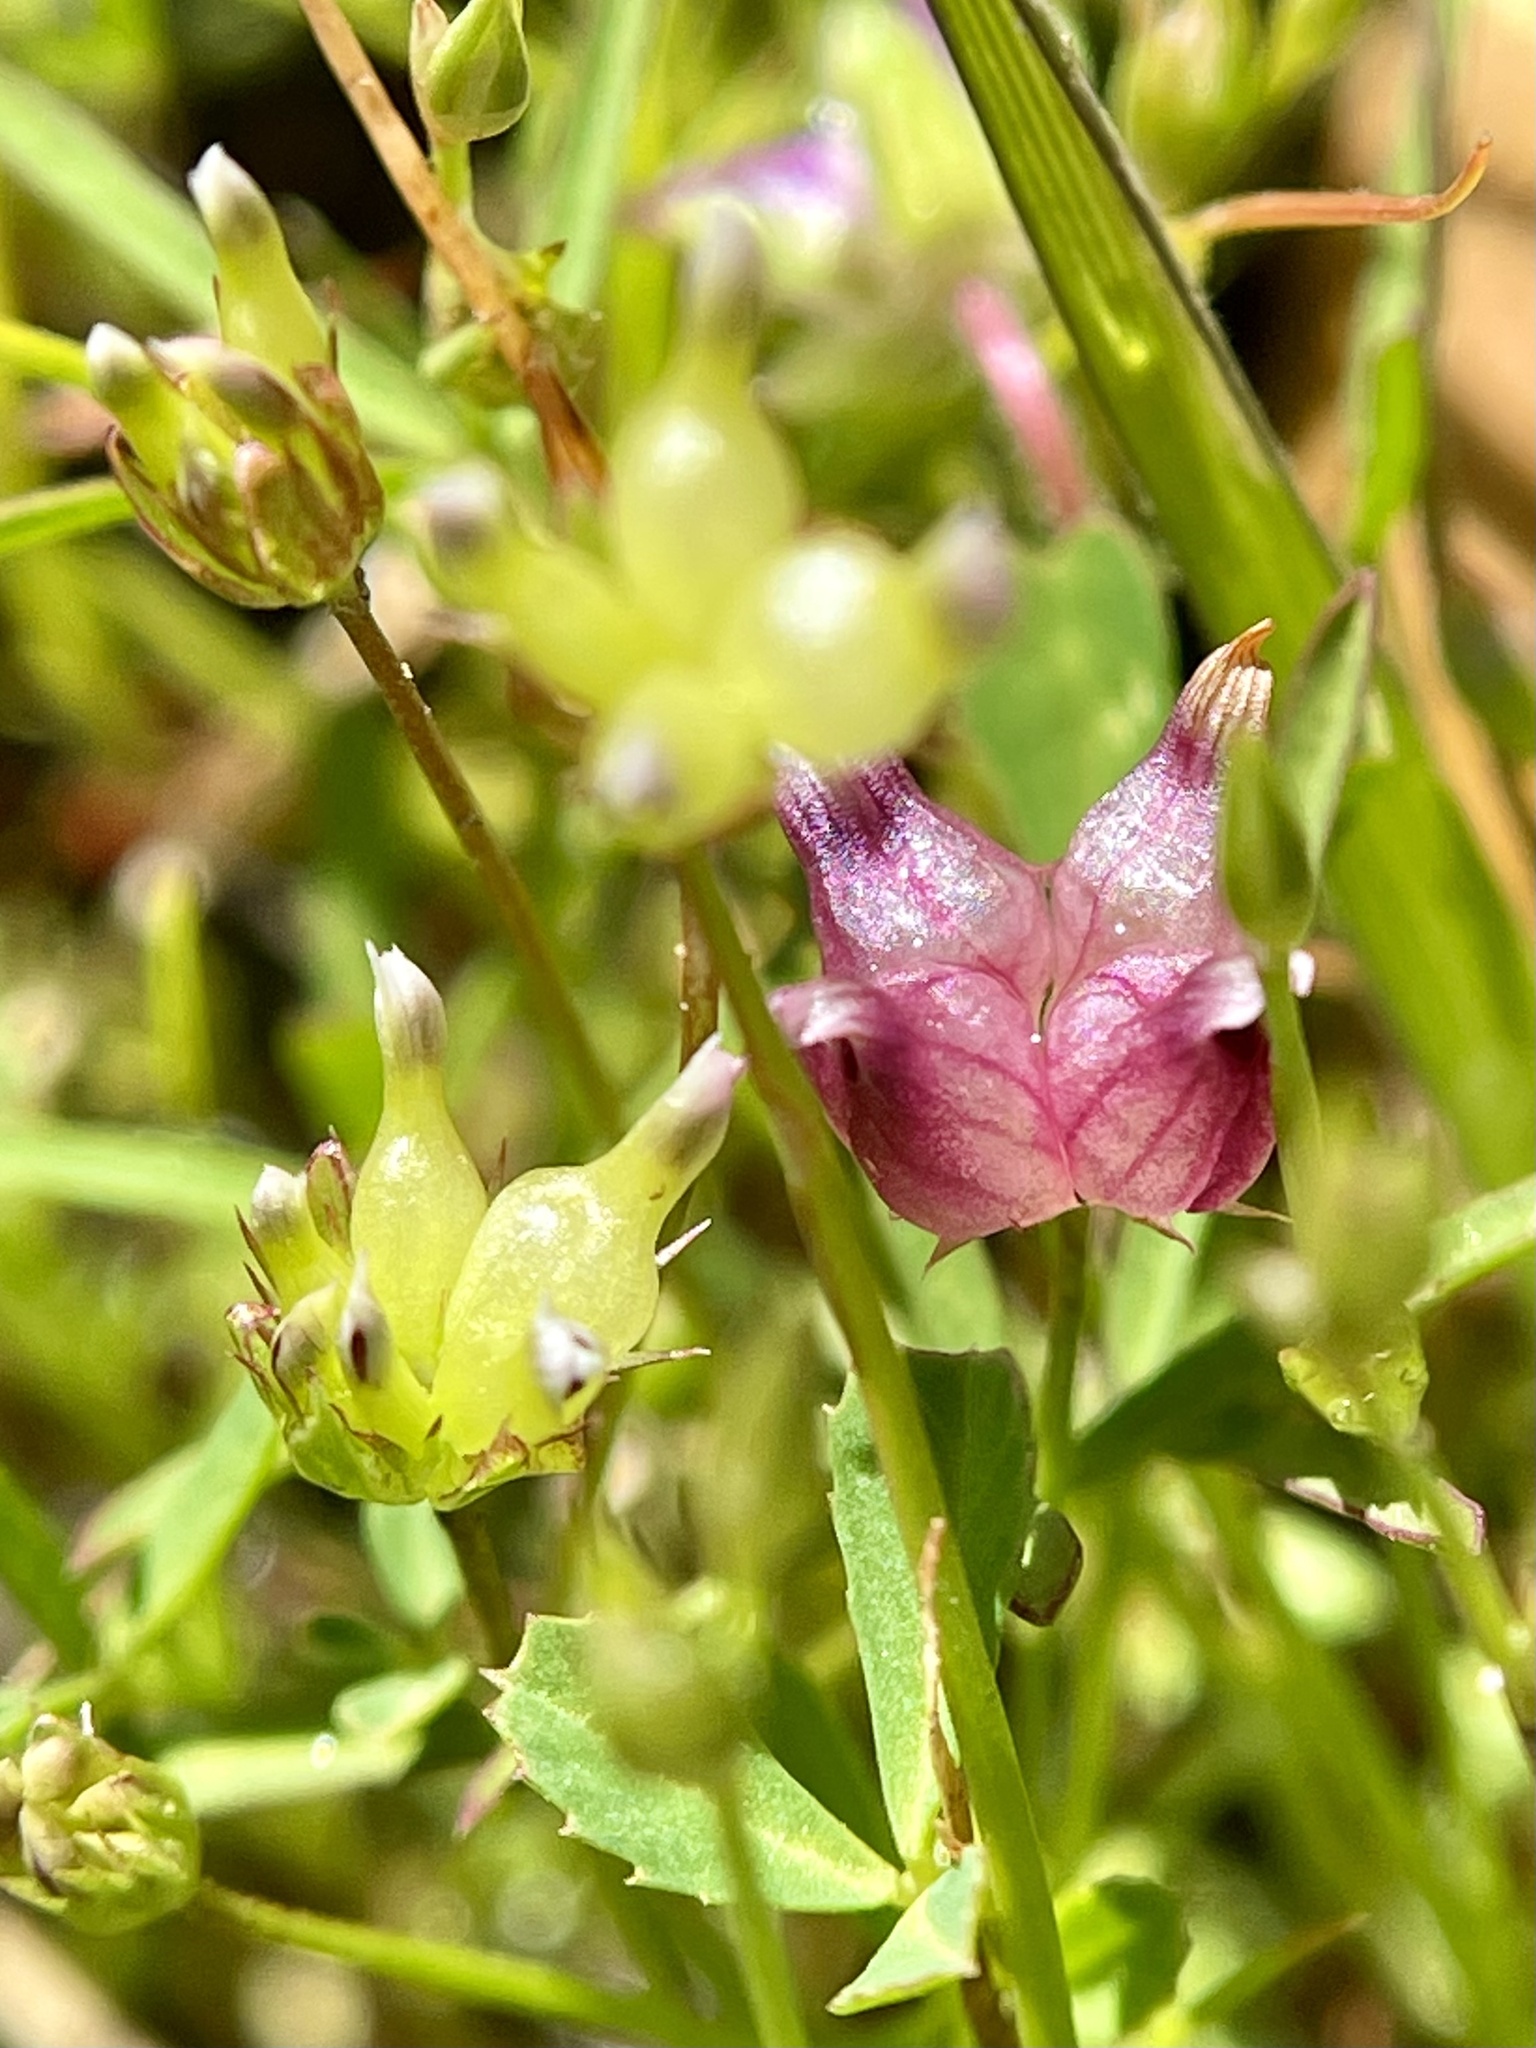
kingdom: Plantae
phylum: Tracheophyta
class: Magnoliopsida
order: Fabales
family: Fabaceae
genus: Trifolium
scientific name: Trifolium depauperatum
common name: Poverty clover
